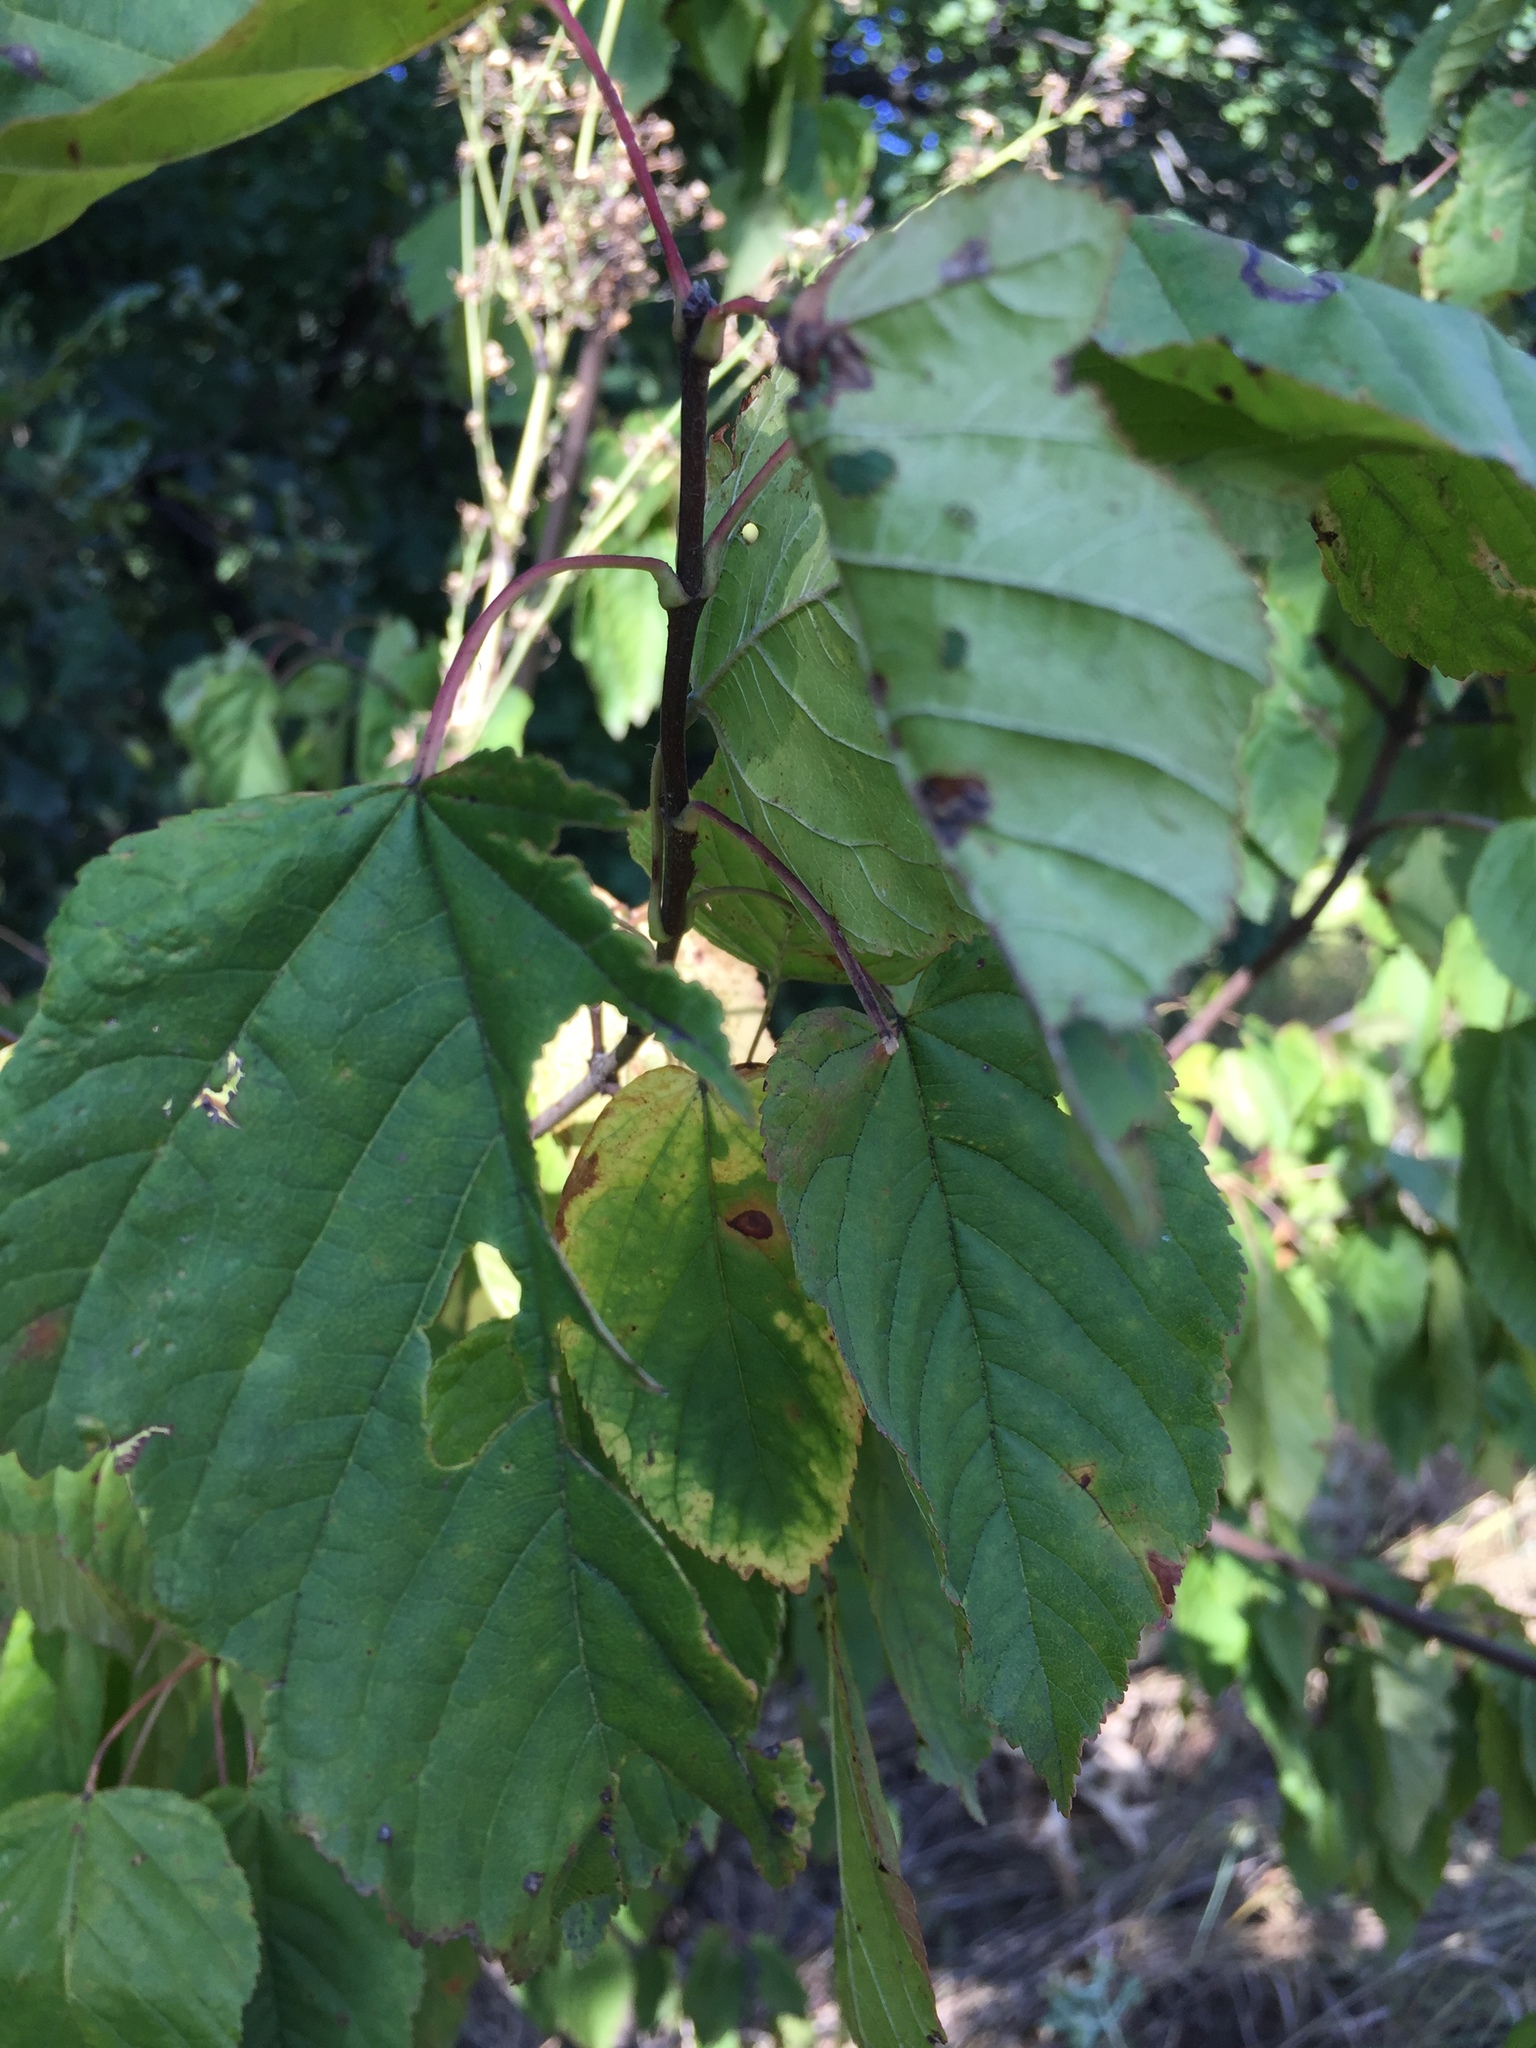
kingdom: Plantae
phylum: Tracheophyta
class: Magnoliopsida
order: Sapindales
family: Sapindaceae
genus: Acer
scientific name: Acer tataricum
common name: Tartar maple
